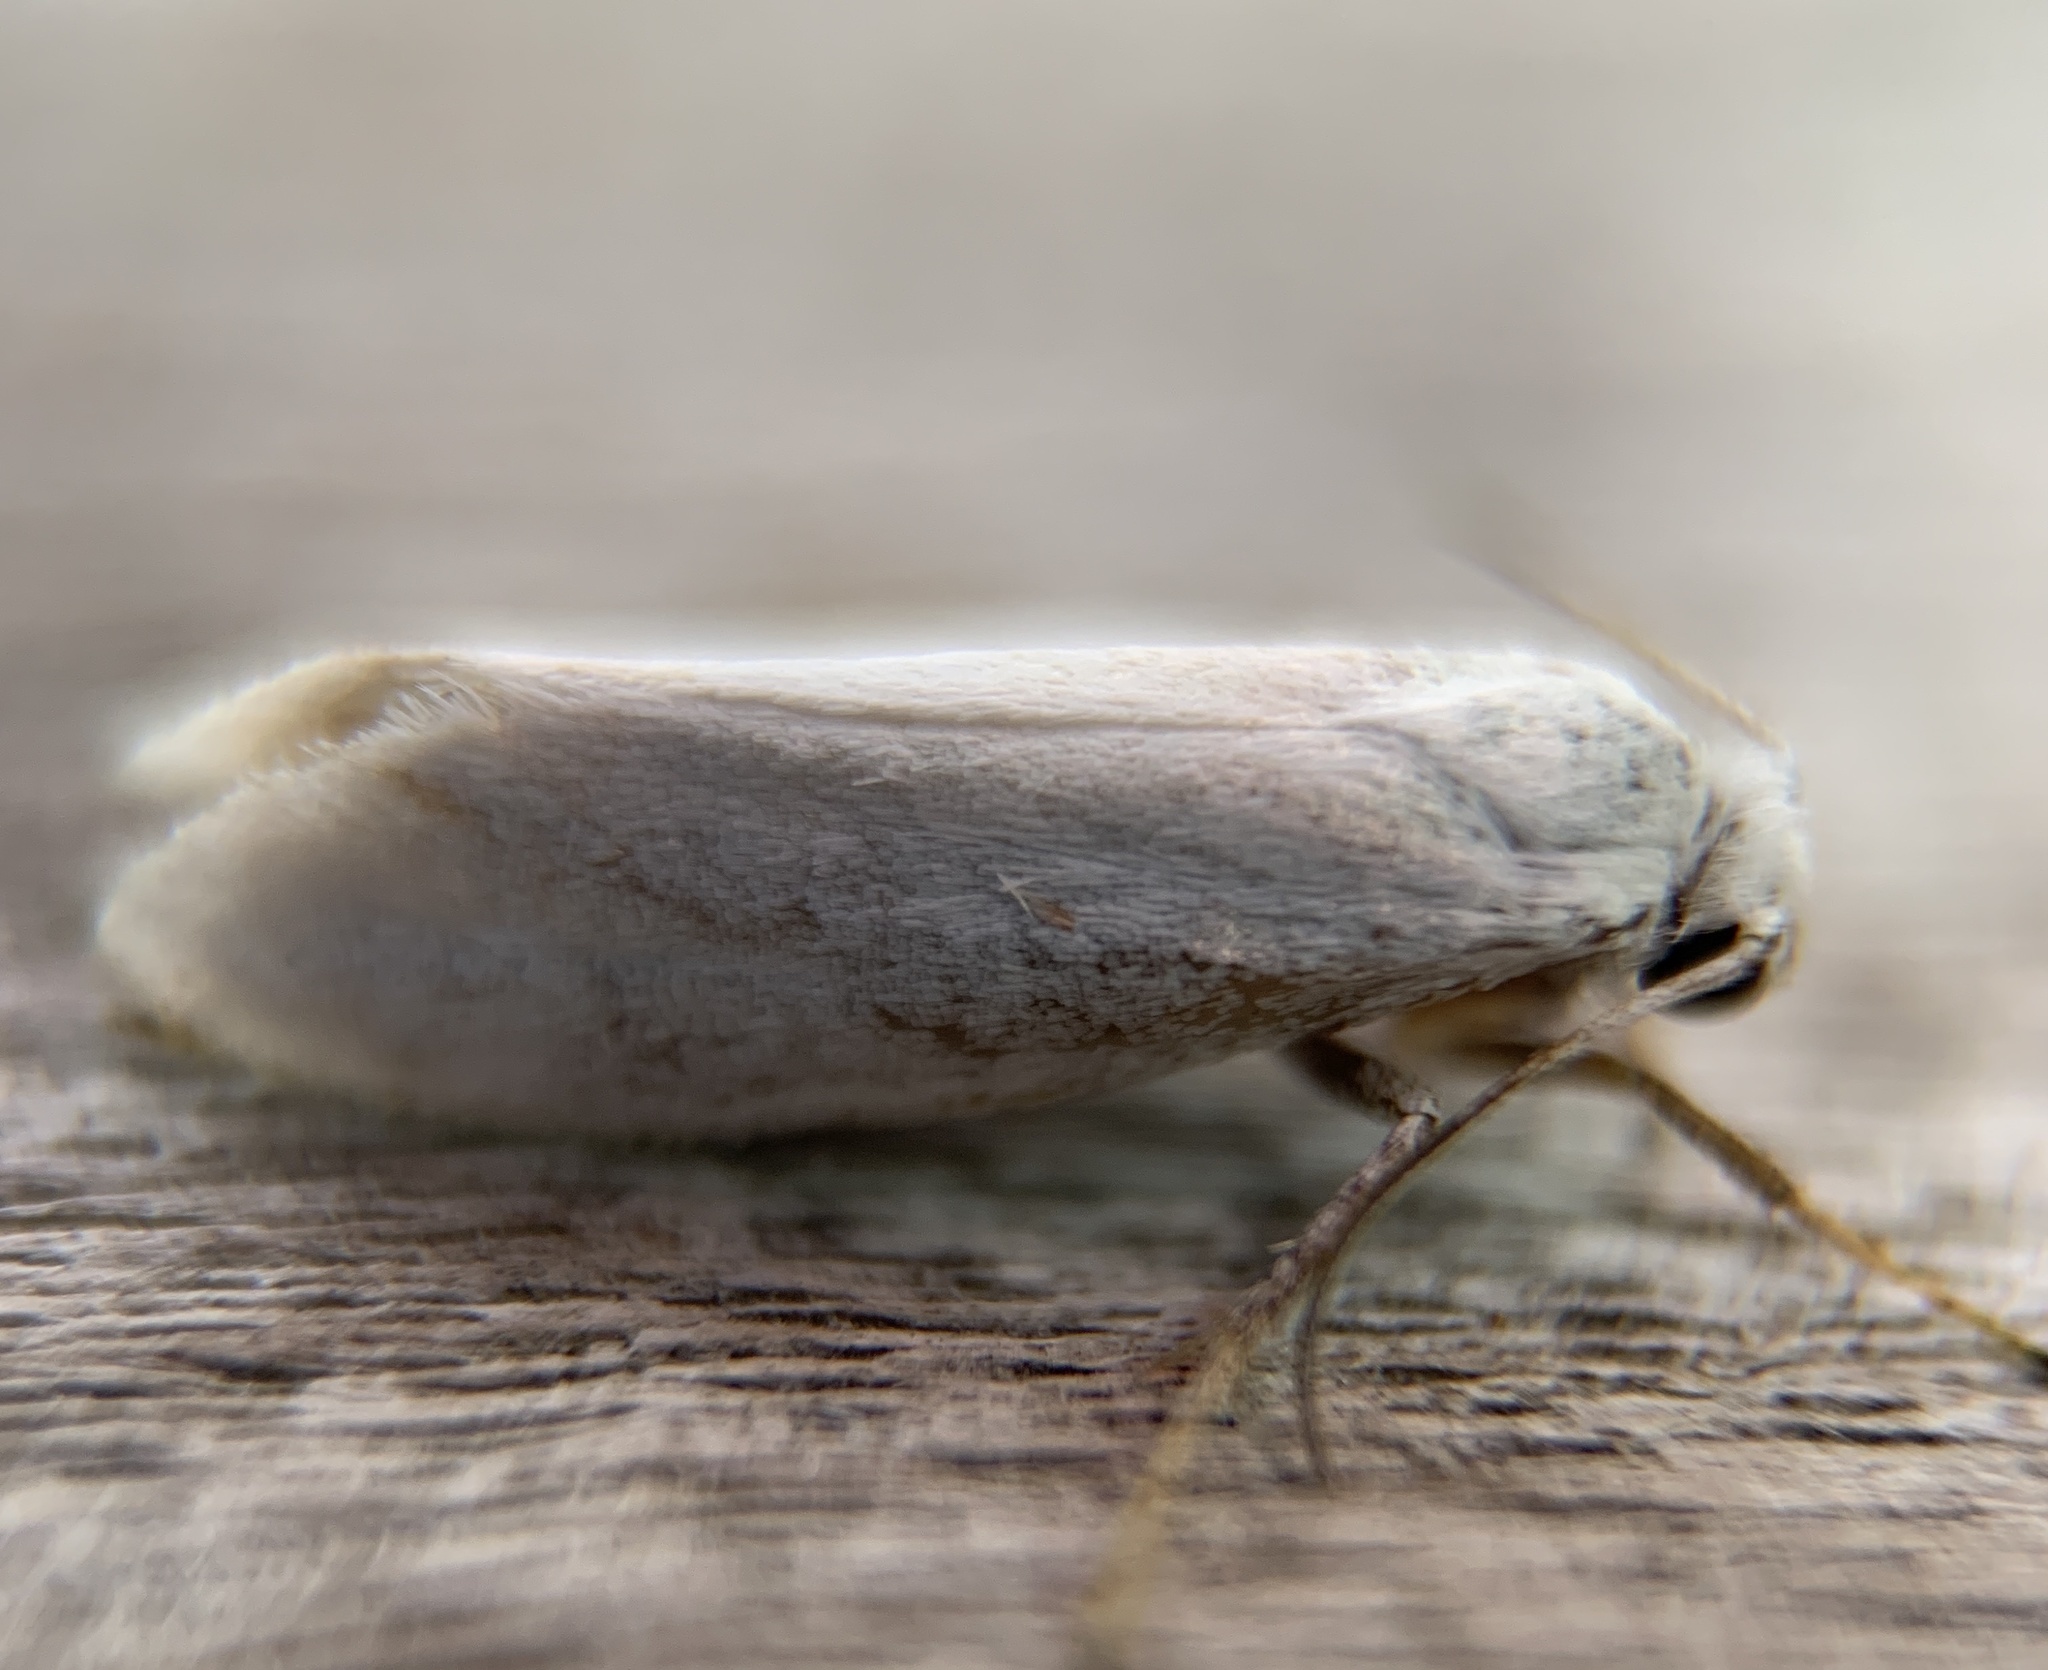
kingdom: Animalia
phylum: Arthropoda
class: Insecta
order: Lepidoptera
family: Prodoxidae
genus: Prodoxus
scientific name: Prodoxus decipiens
